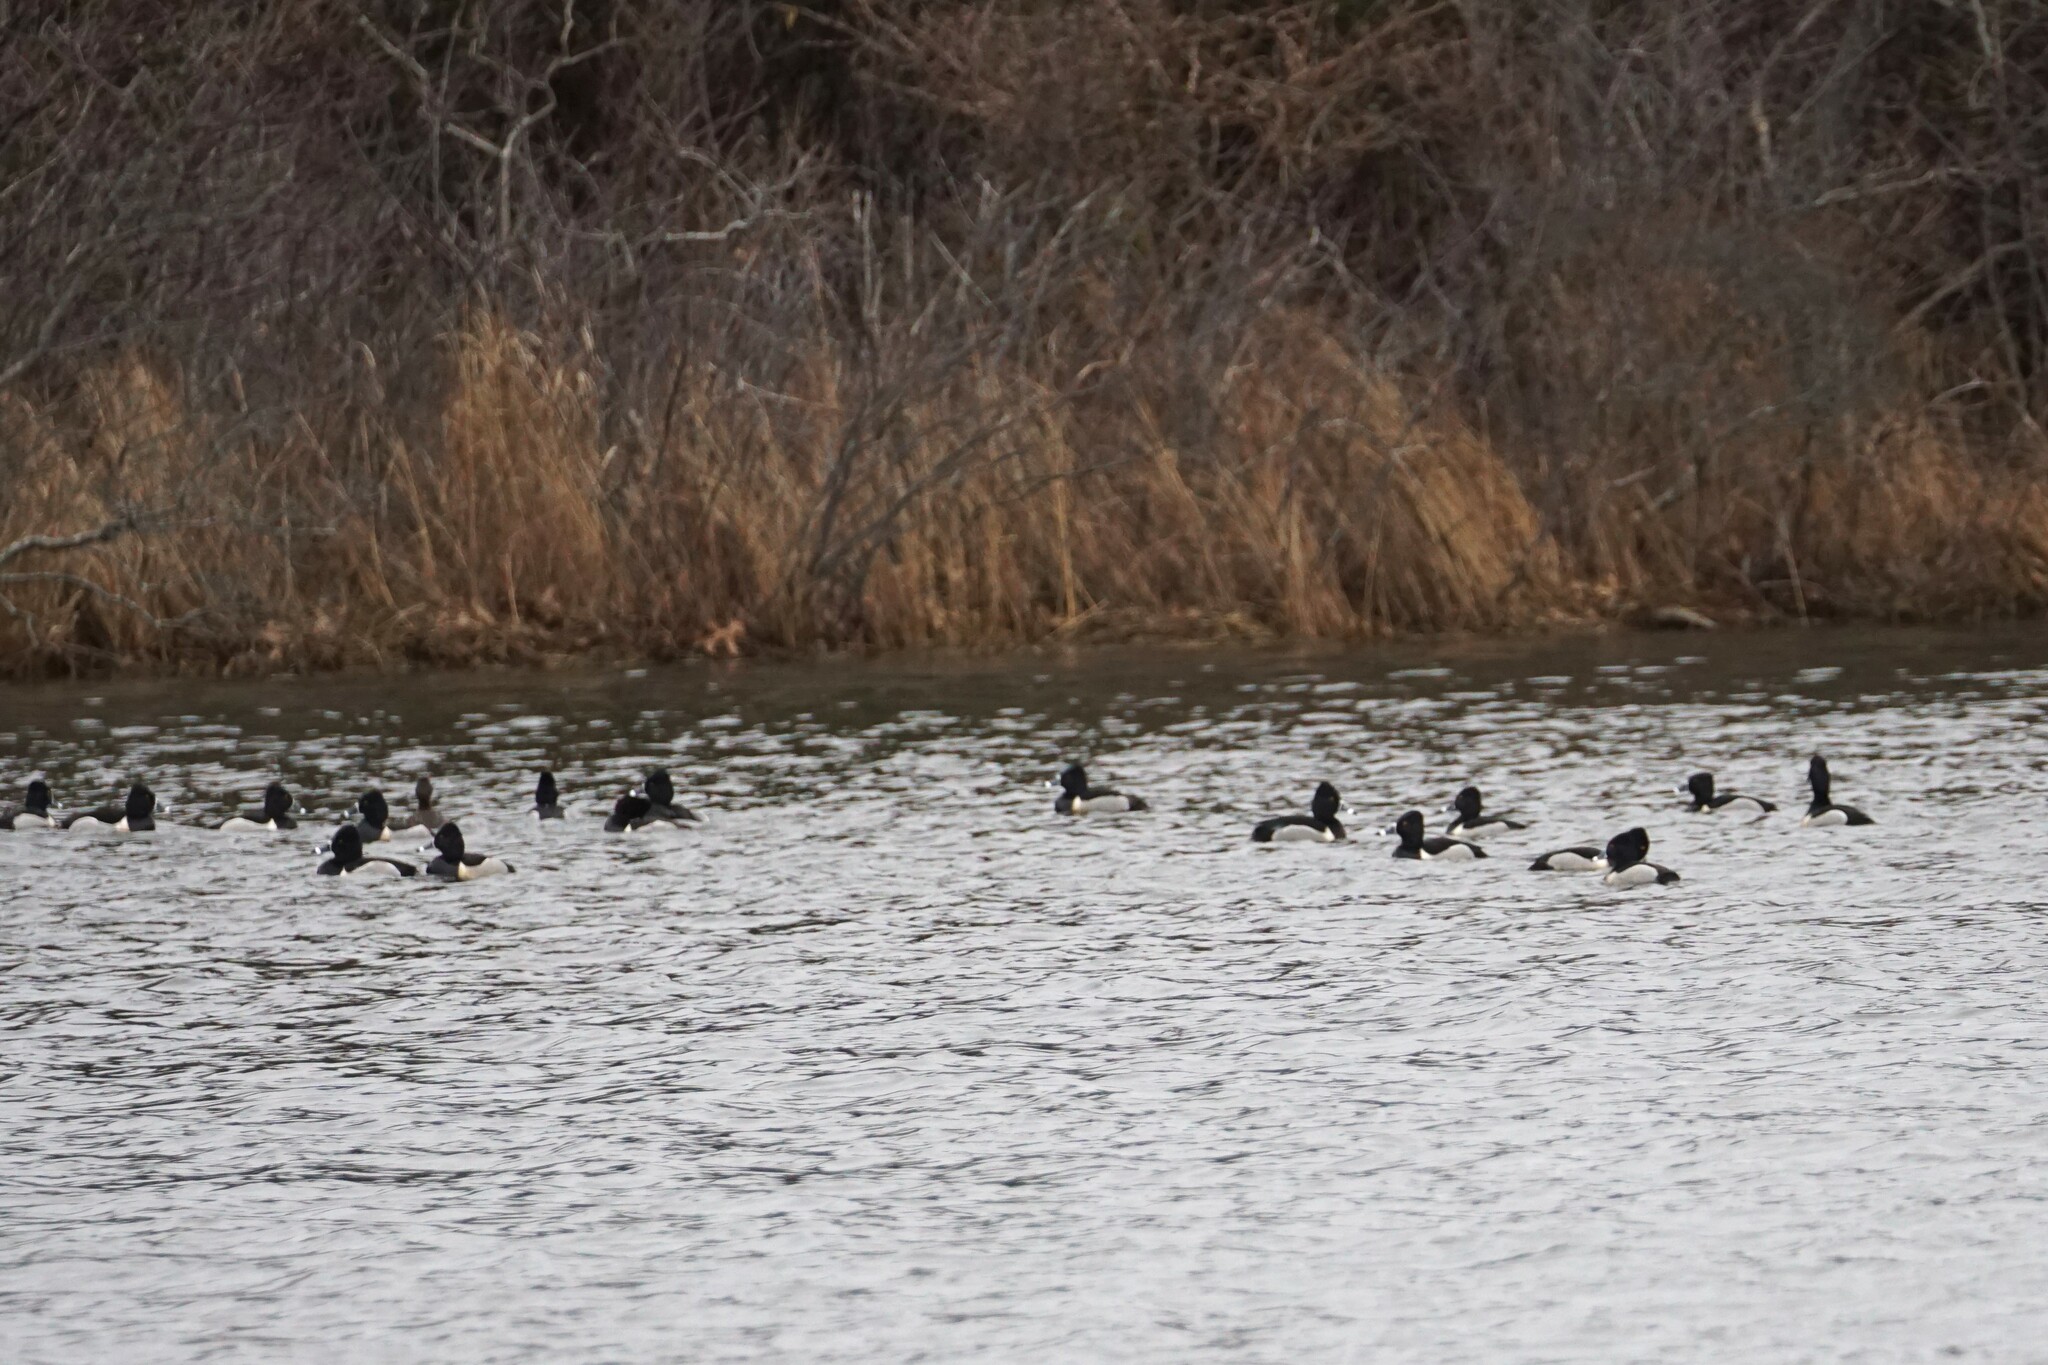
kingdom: Animalia
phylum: Chordata
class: Aves
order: Anseriformes
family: Anatidae
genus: Aythya
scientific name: Aythya collaris
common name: Ring-necked duck
